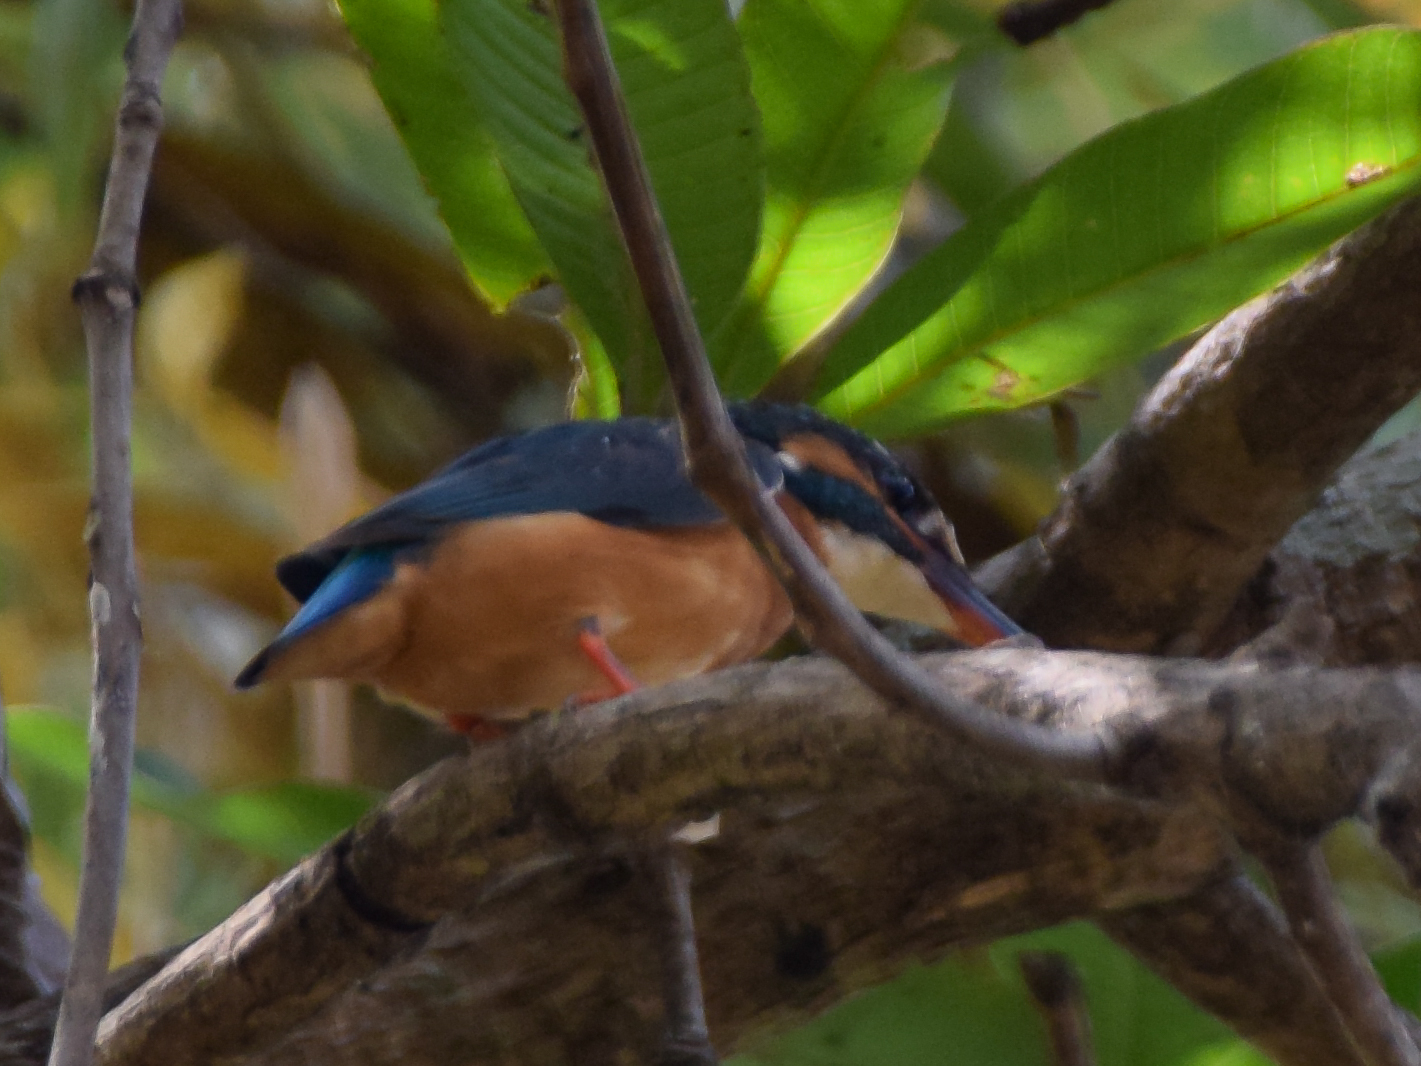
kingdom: Animalia
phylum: Chordata
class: Aves
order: Coraciiformes
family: Alcedinidae
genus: Alcedo
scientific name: Alcedo meninting
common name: Blue-eared kingfisher
